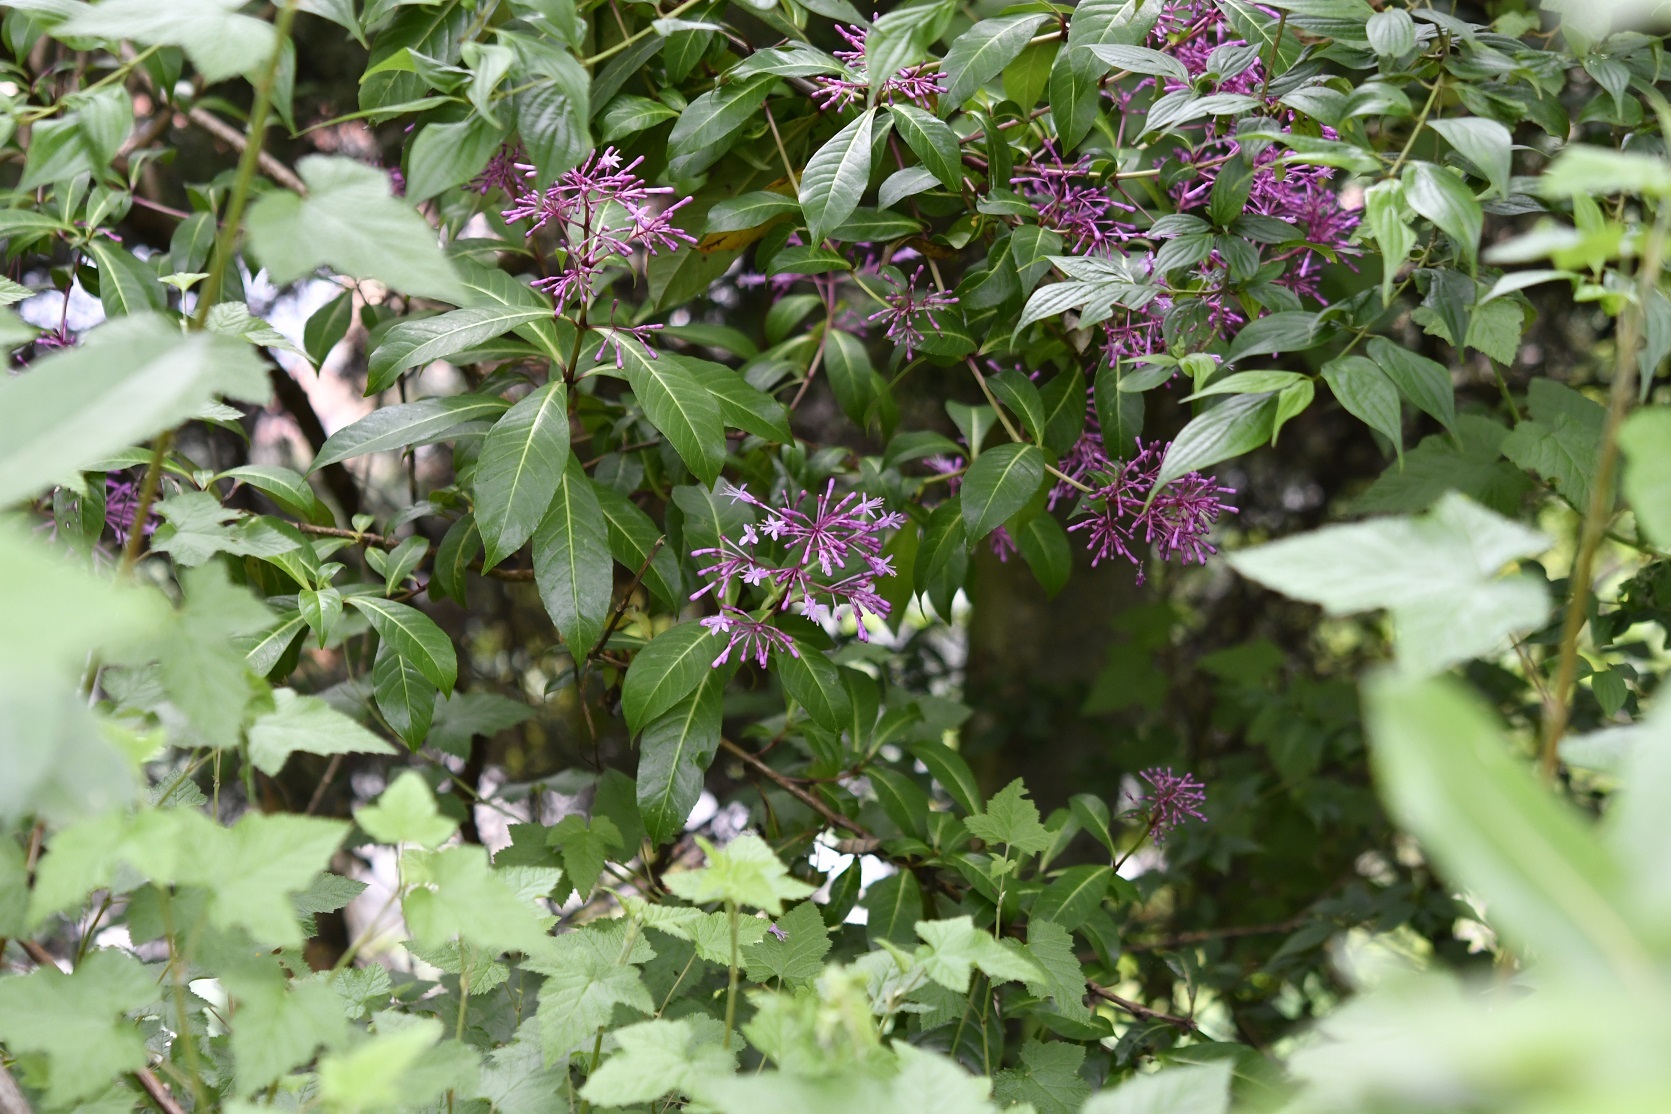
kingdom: Plantae
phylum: Tracheophyta
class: Magnoliopsida
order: Myrtales
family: Onagraceae
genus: Fuchsia
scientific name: Fuchsia paniculata
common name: Shrubby fuchsia
